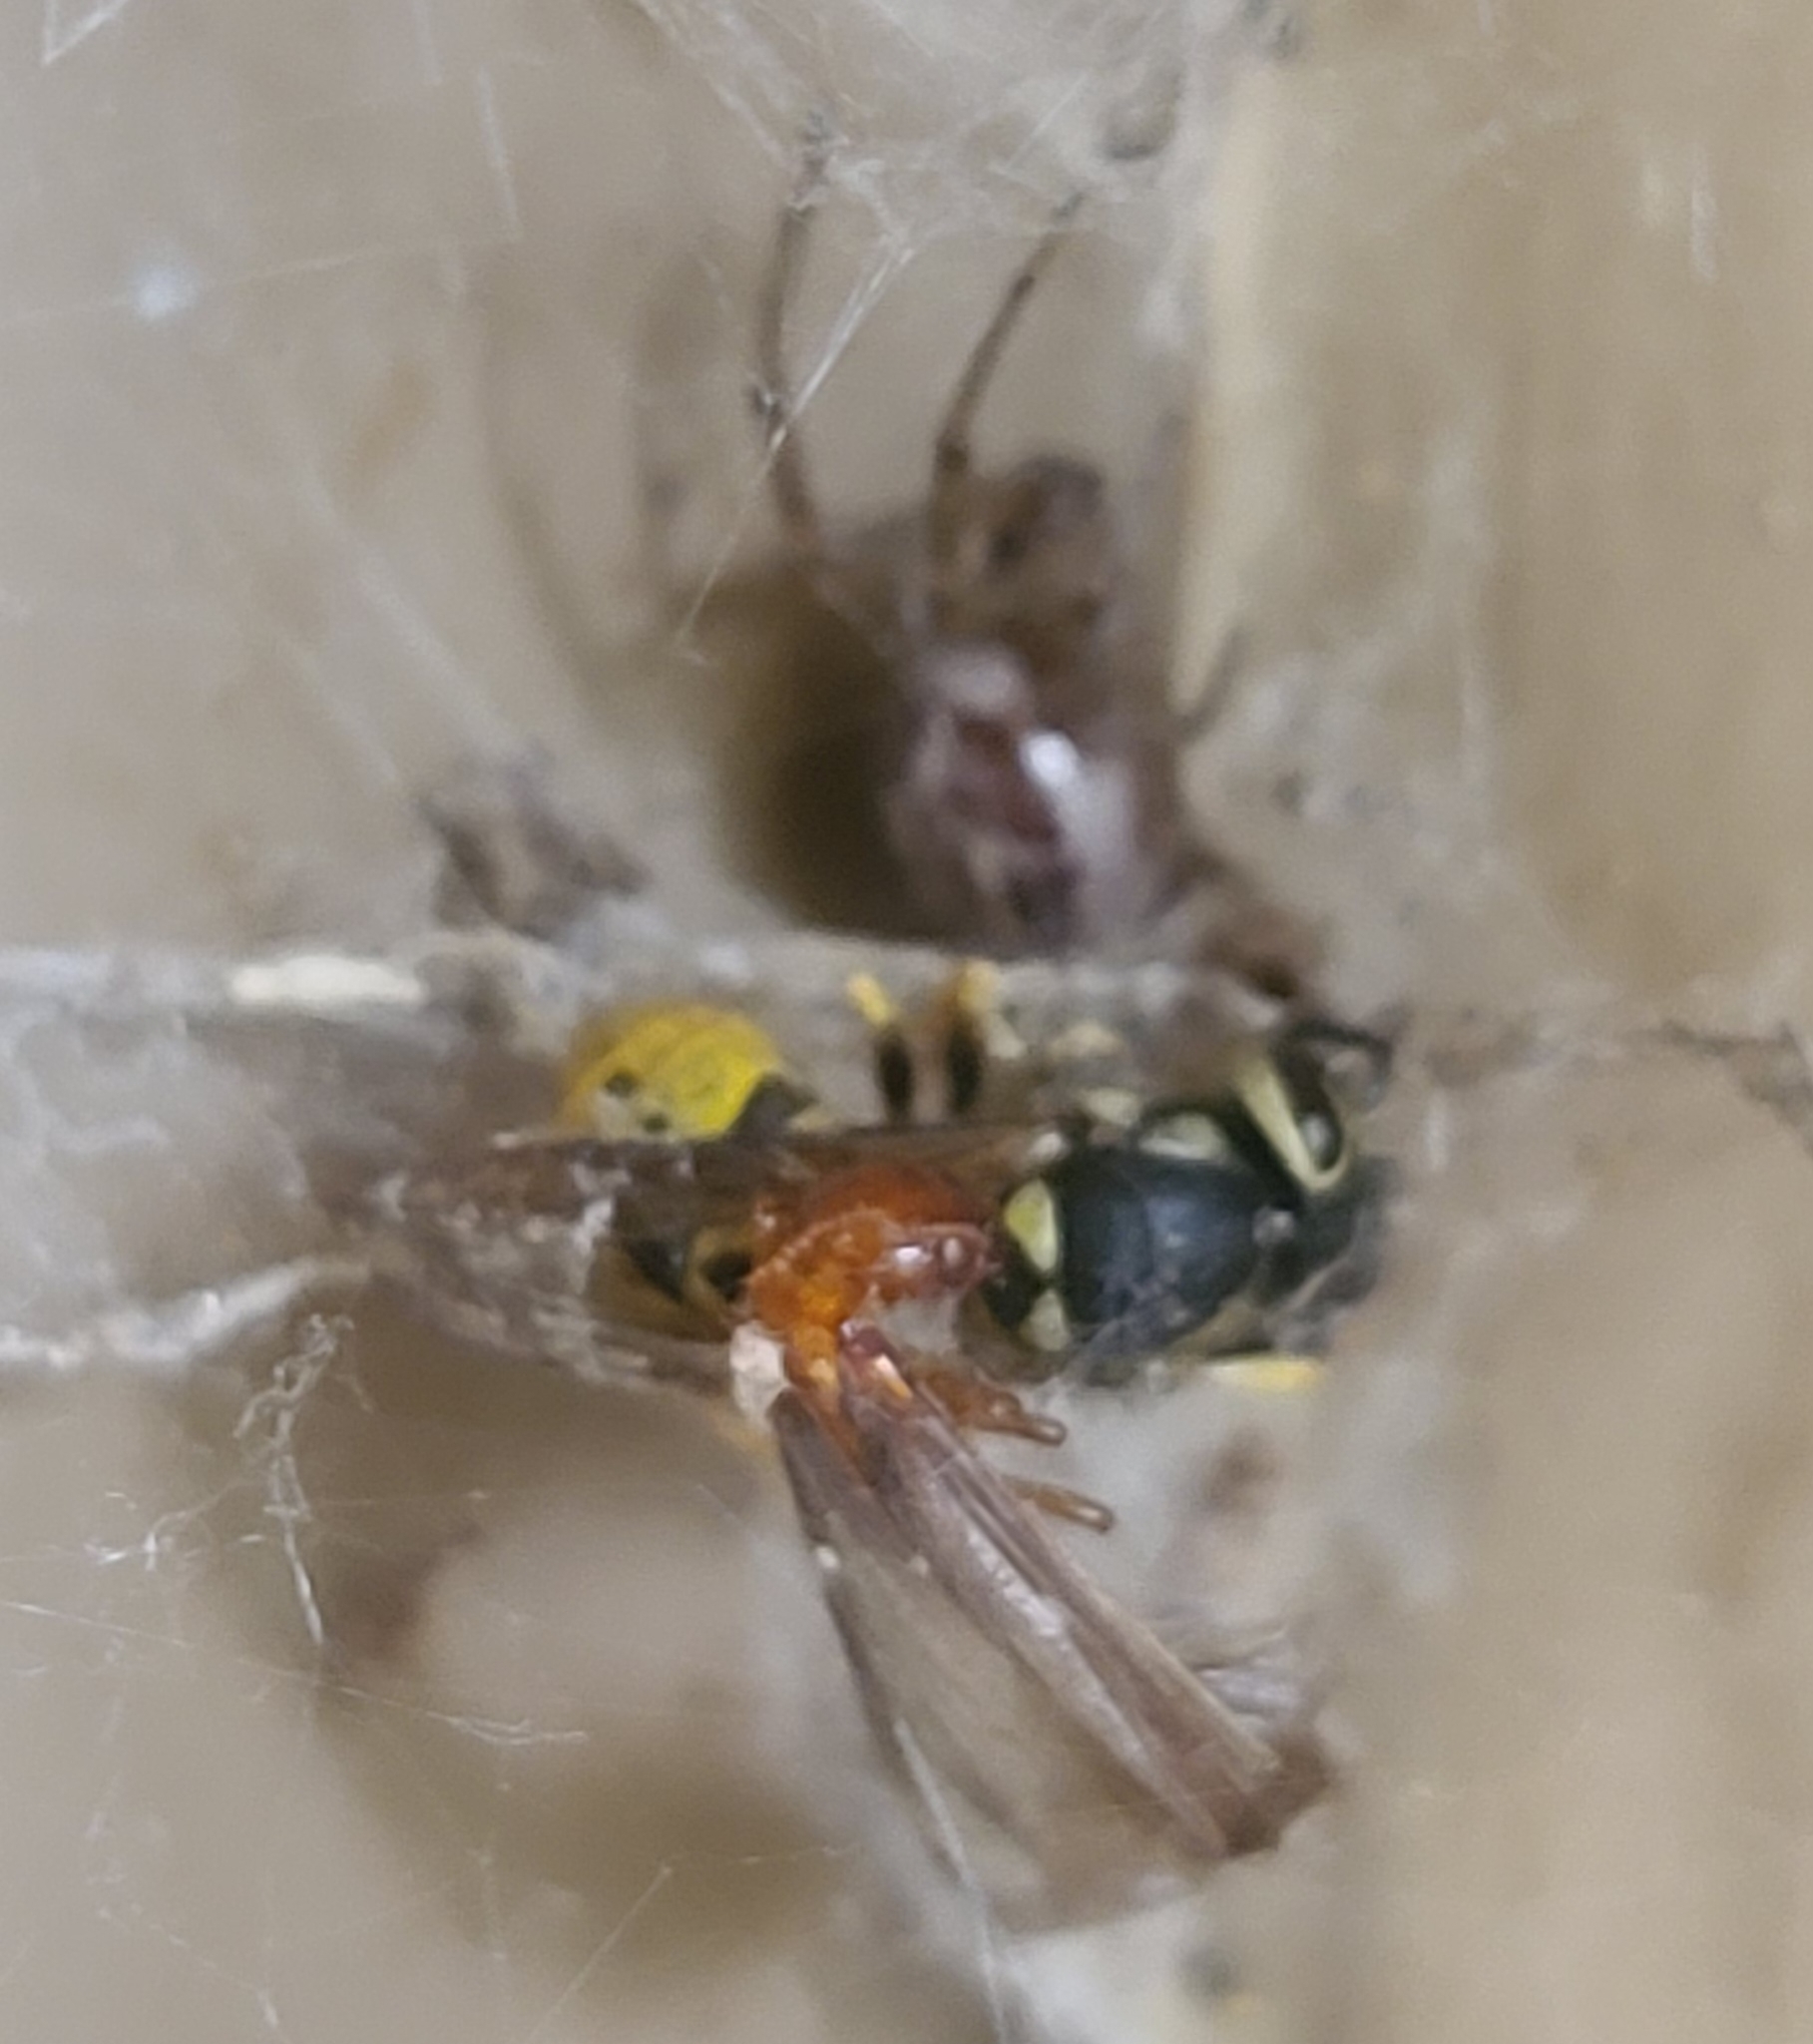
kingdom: Animalia
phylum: Arthropoda
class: Arachnida
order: Araneae
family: Theridiidae
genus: Steatoda
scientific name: Steatoda nobilis
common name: Cobweb weaver
